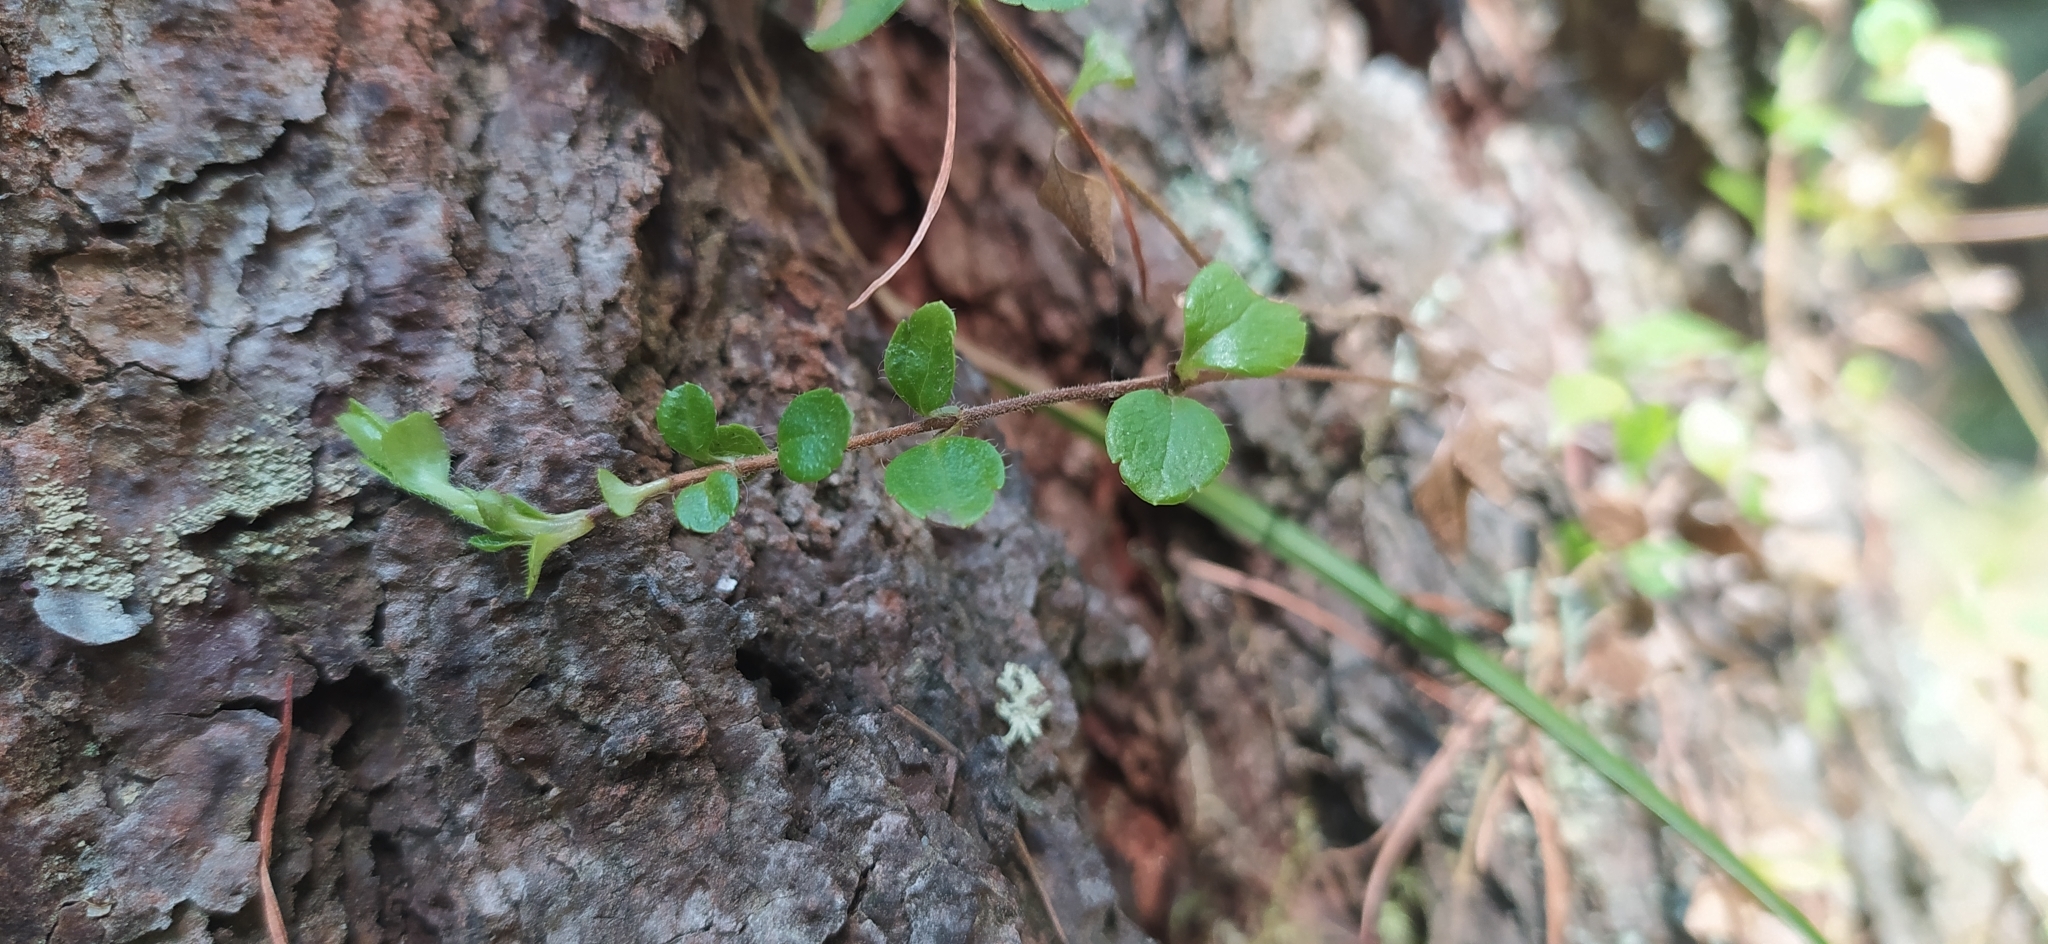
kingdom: Plantae
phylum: Tracheophyta
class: Magnoliopsida
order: Dipsacales
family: Caprifoliaceae
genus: Linnaea
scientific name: Linnaea borealis
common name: Twinflower
